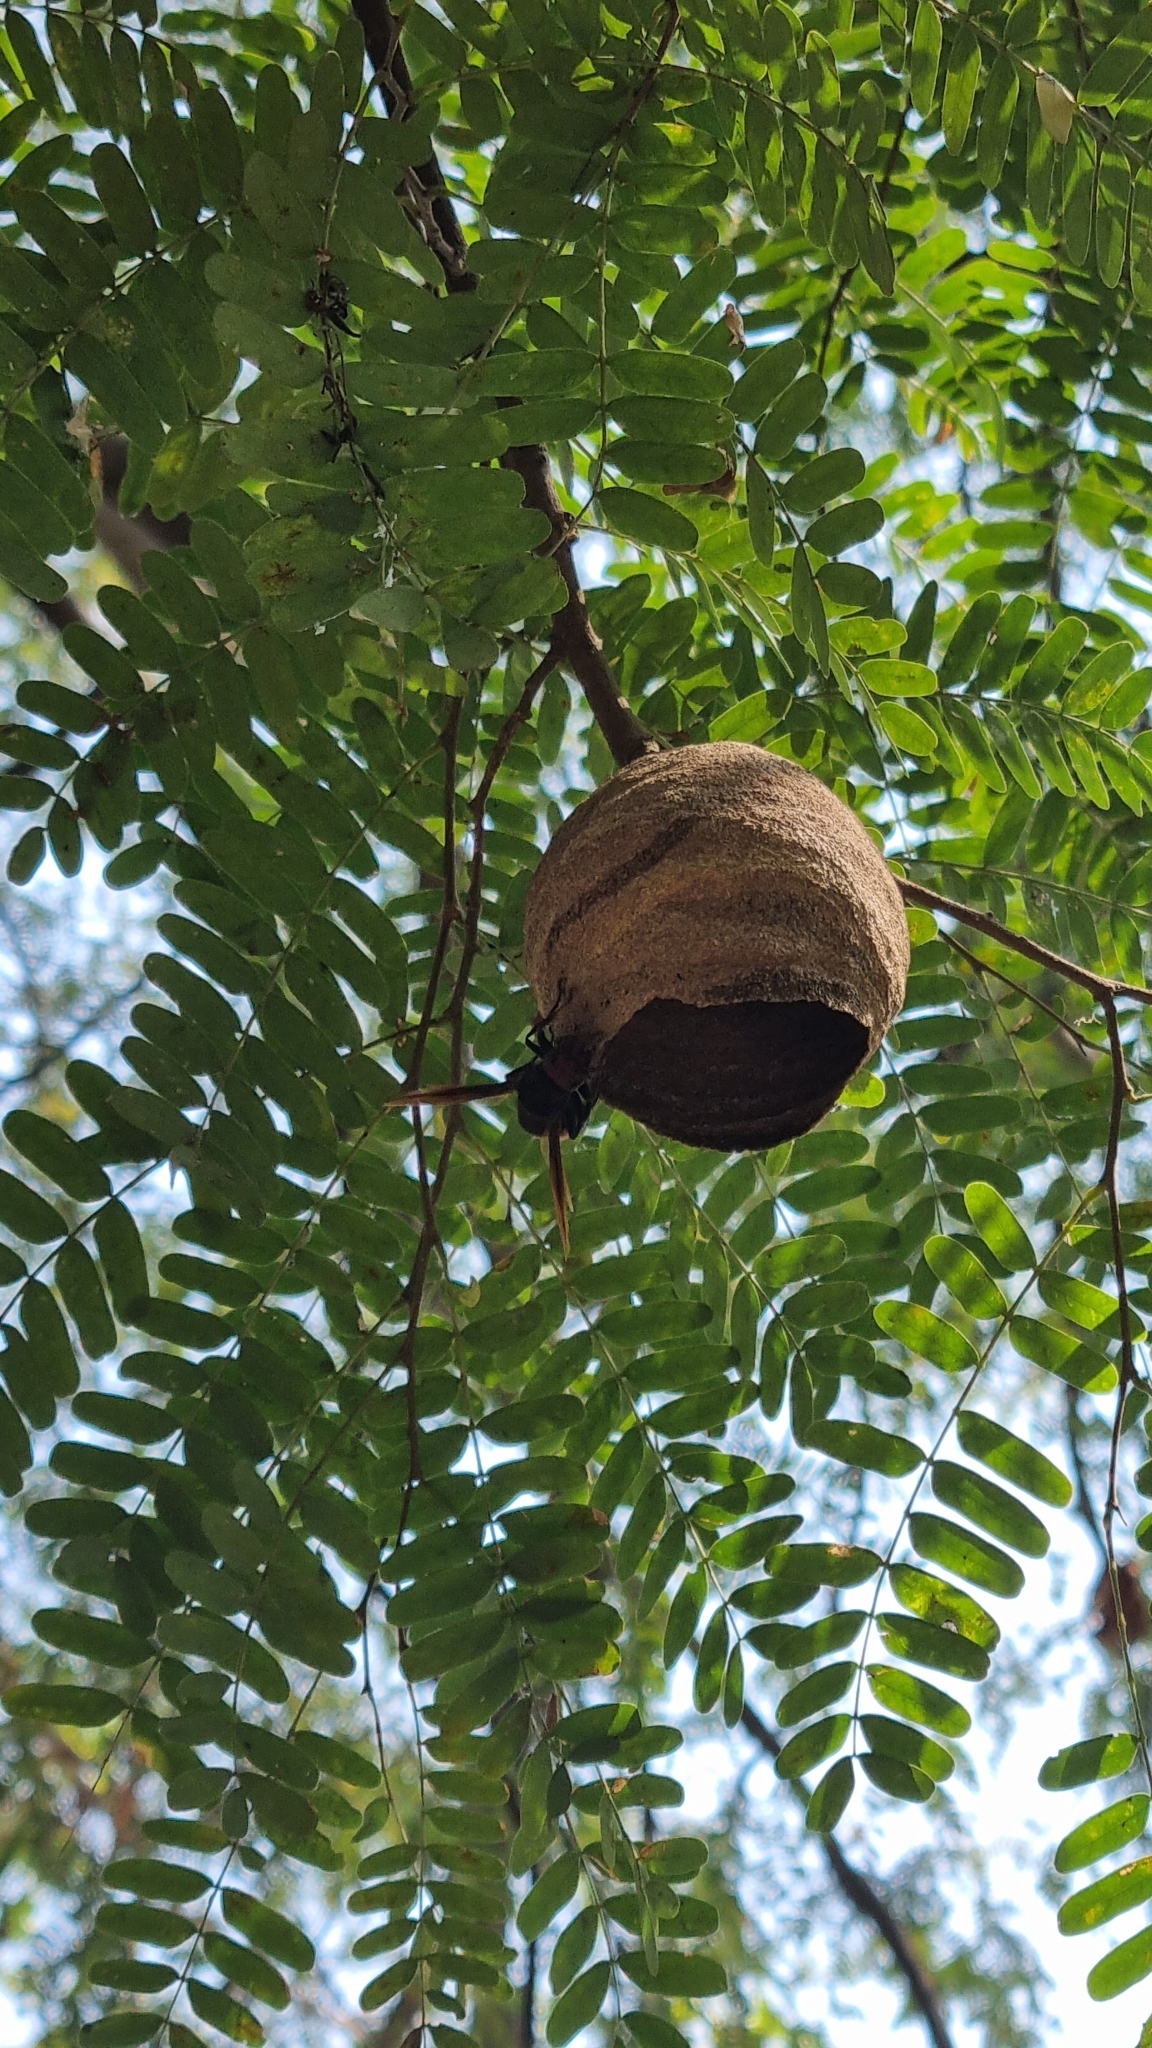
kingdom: Animalia
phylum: Arthropoda
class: Insecta
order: Hymenoptera
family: Vespidae
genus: Vespa
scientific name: Vespa tropica
